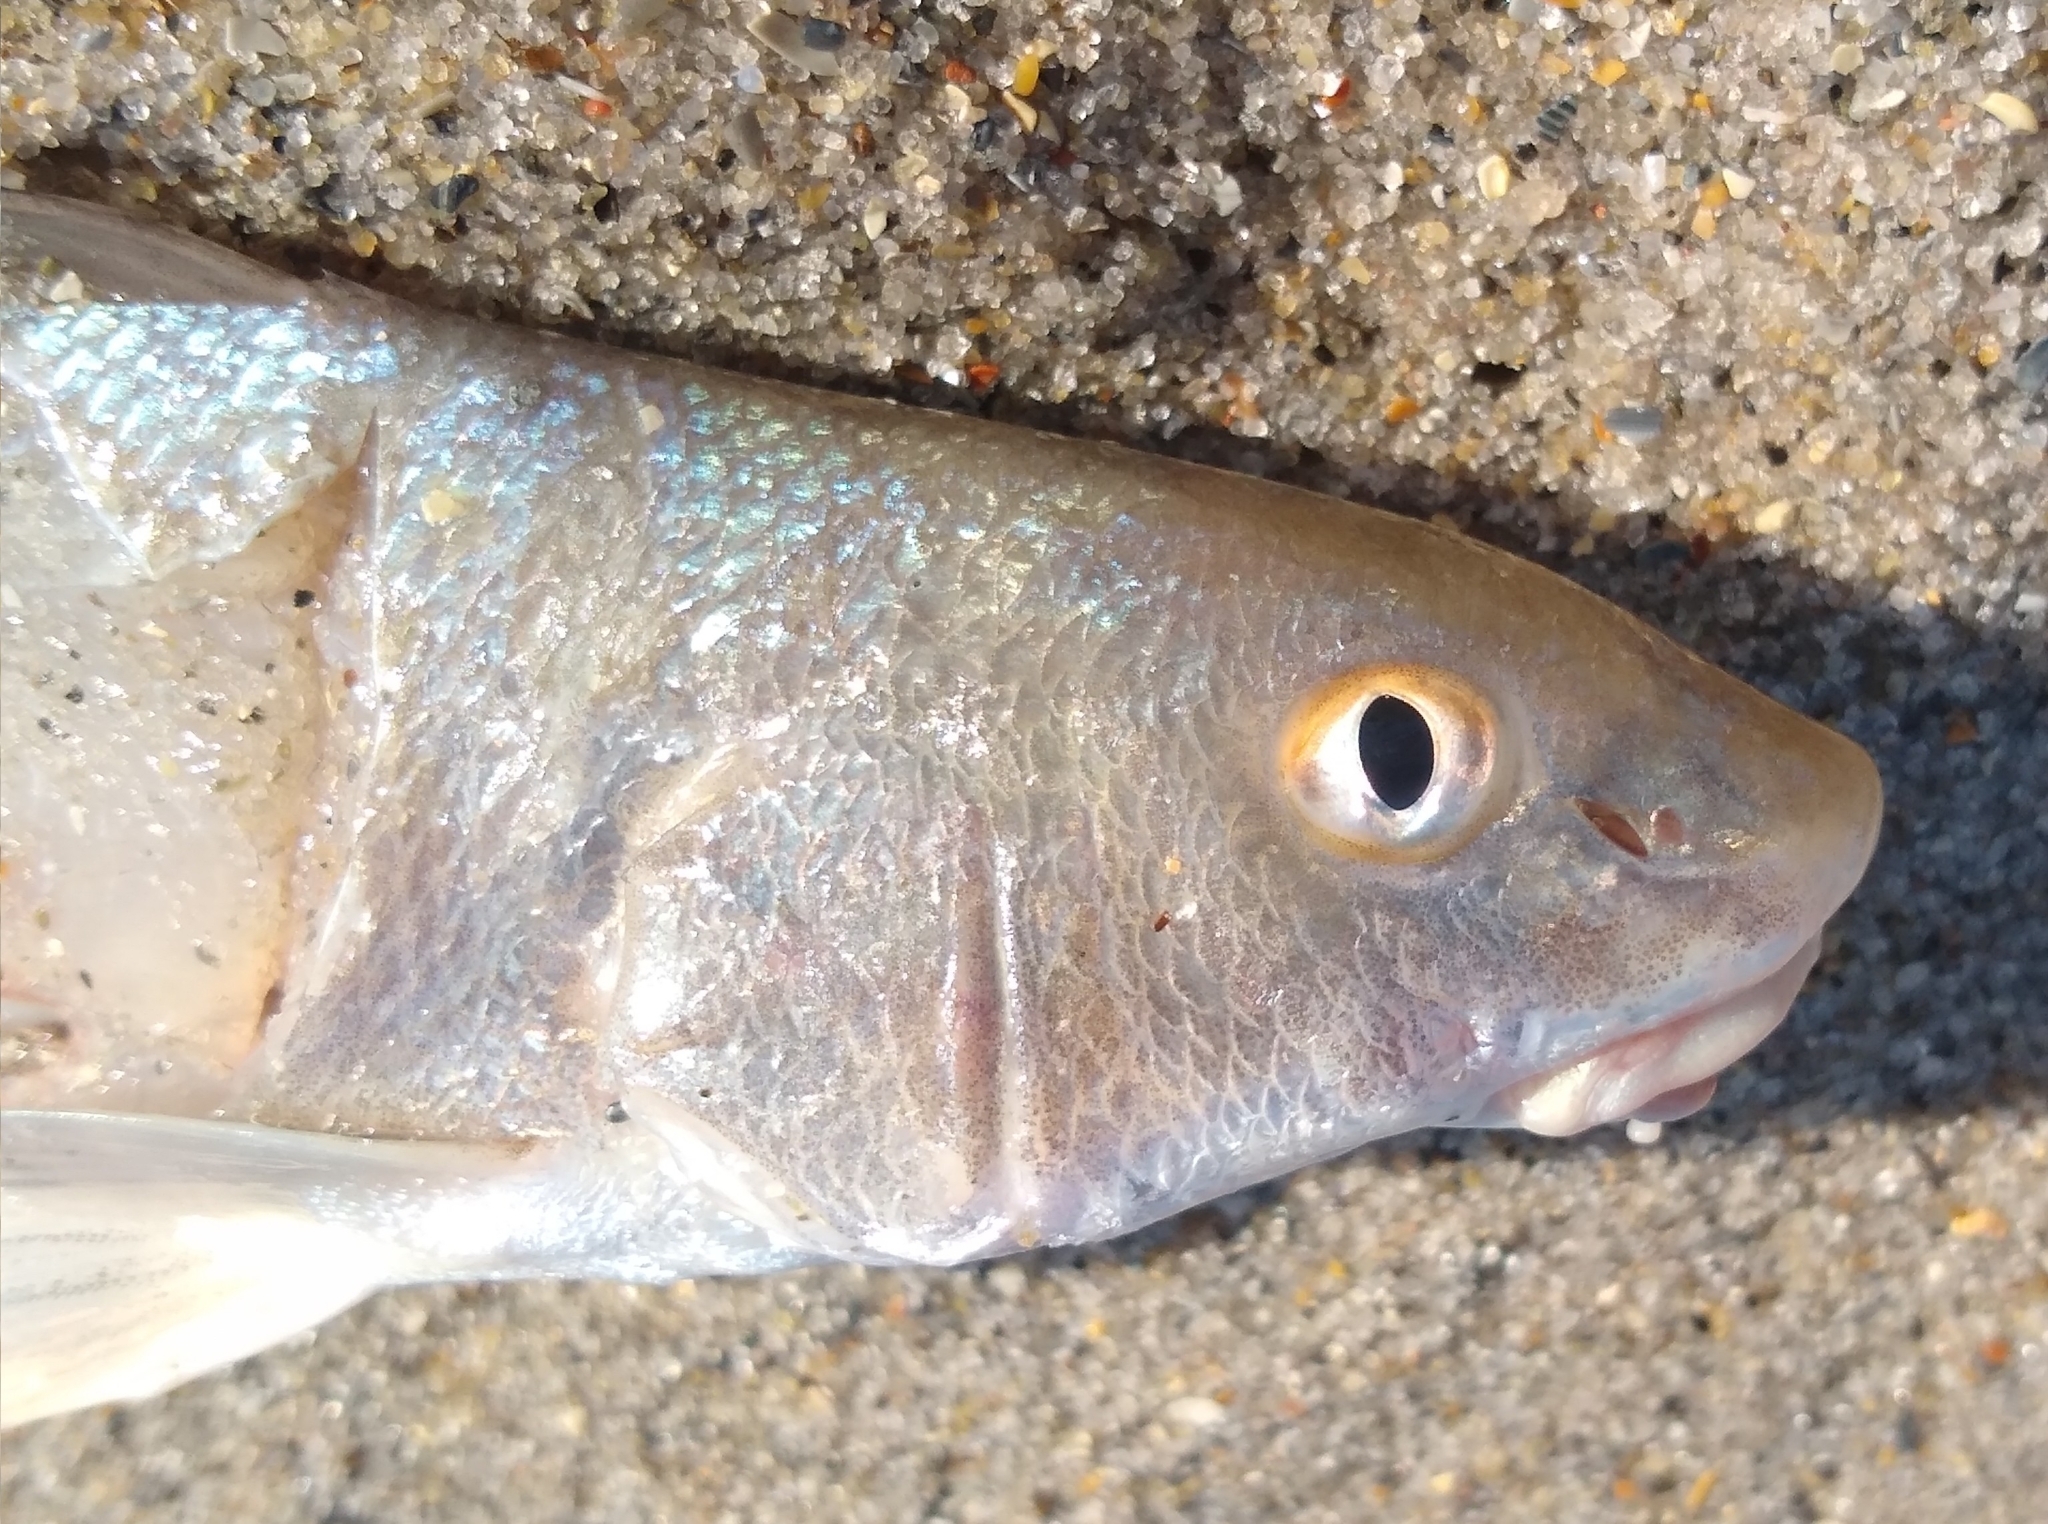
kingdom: Animalia
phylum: Chordata
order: Perciformes
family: Sciaenidae
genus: Menticirrhus
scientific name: Menticirrhus littoralis
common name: Gulf kingcroaker
